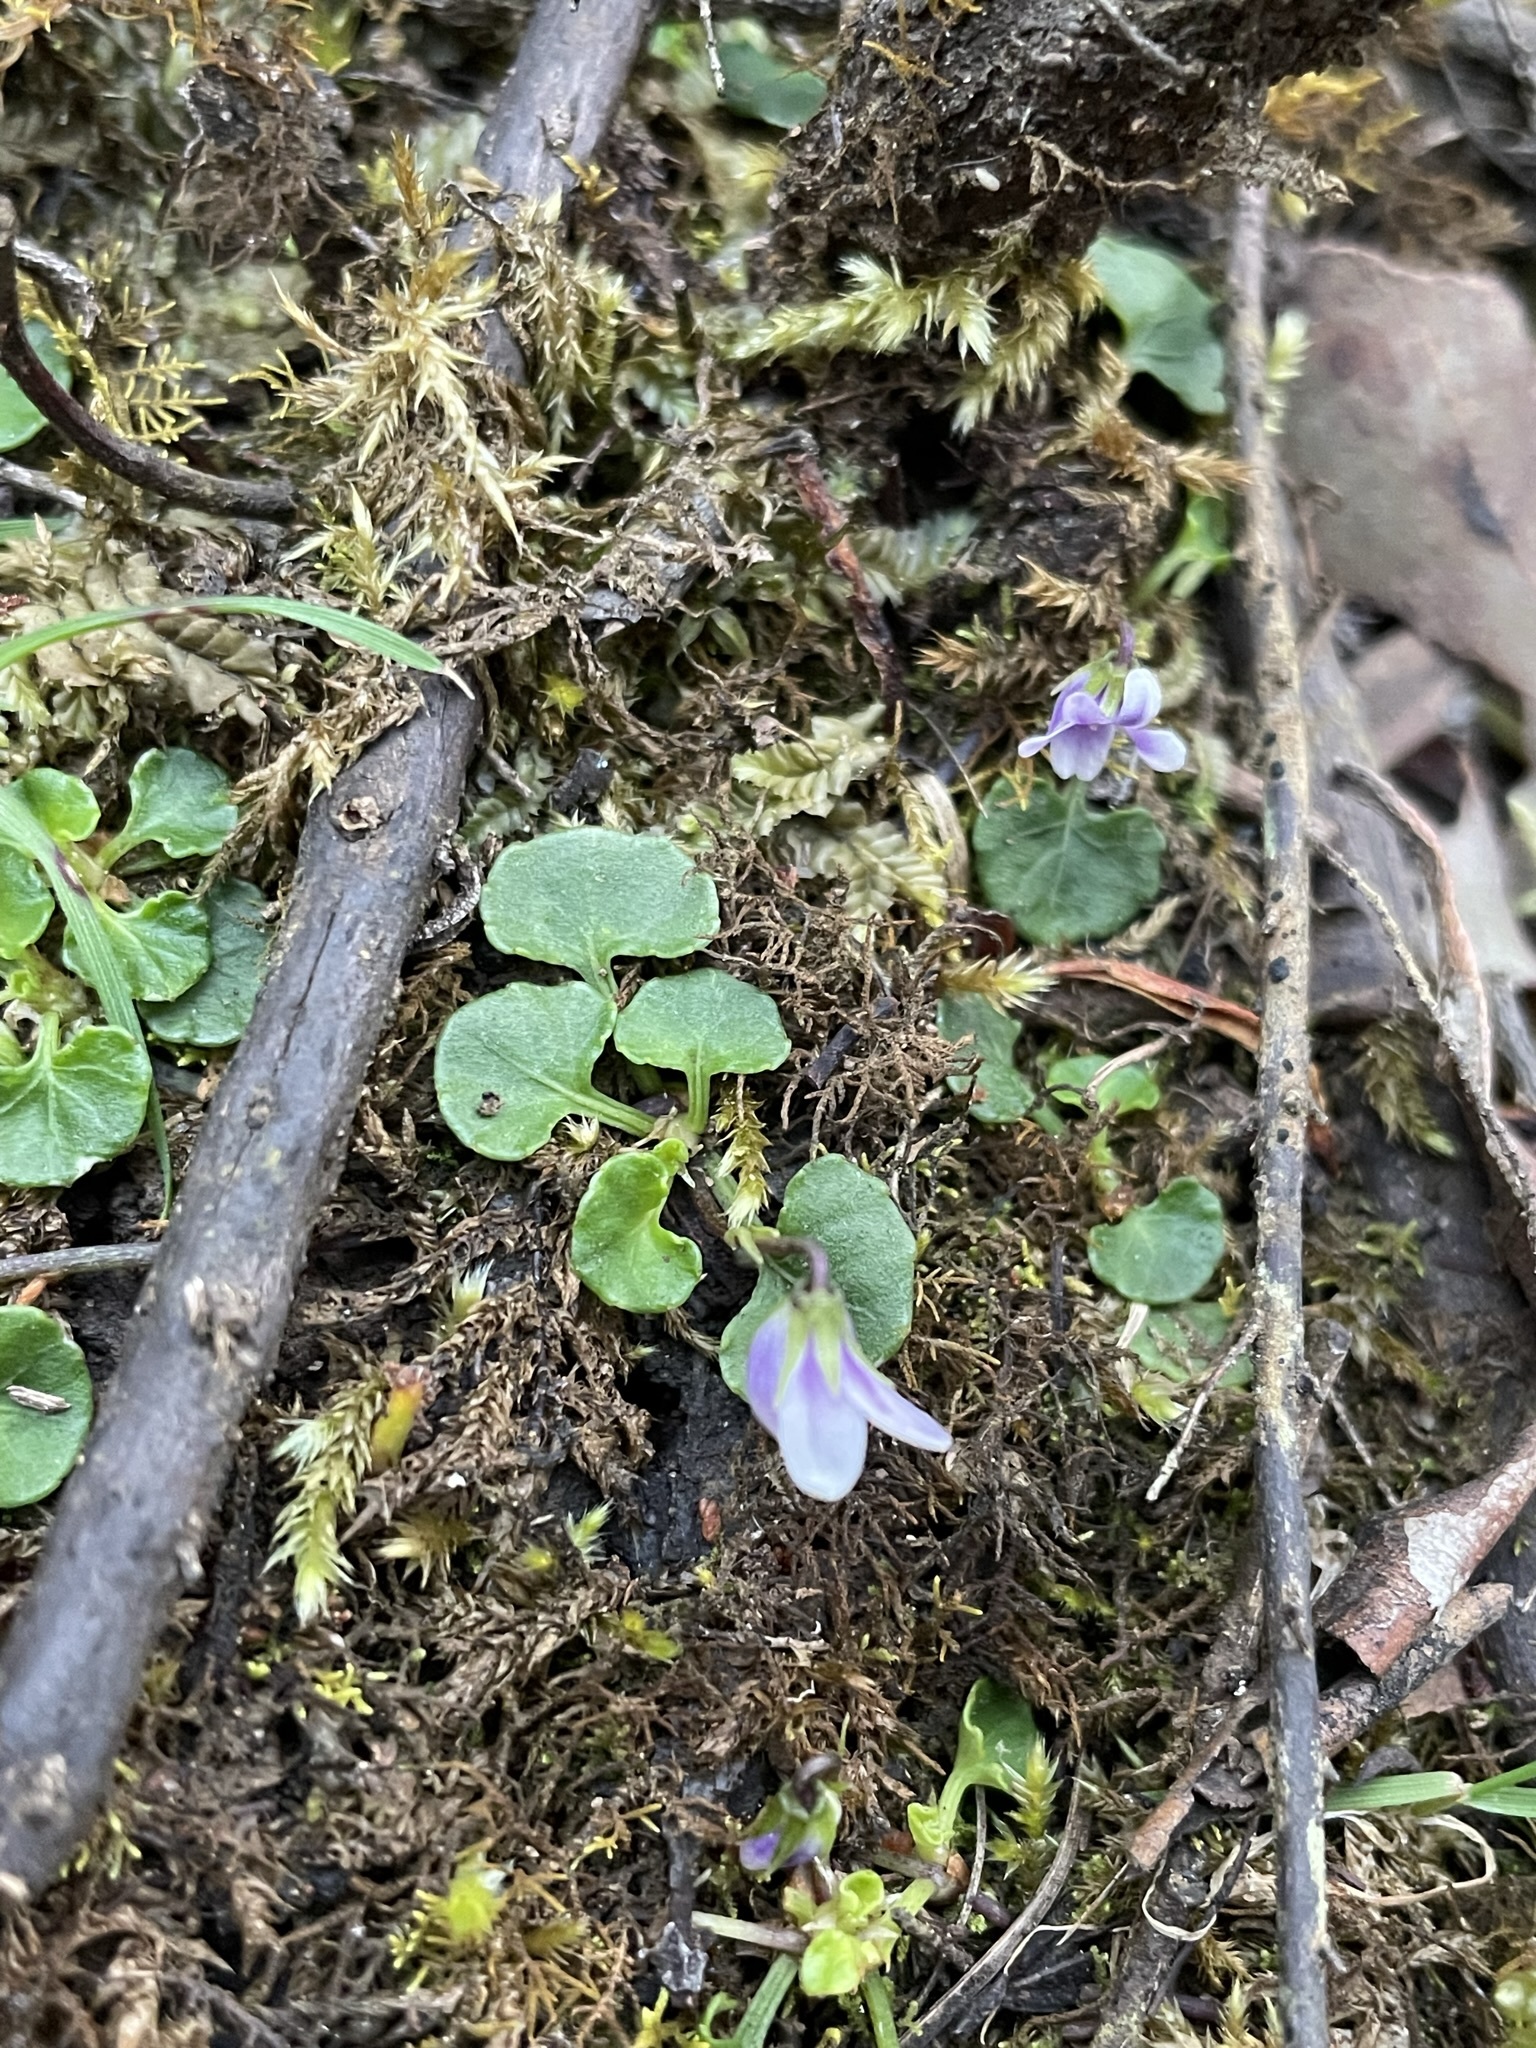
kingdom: Plantae
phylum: Tracheophyta
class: Magnoliopsida
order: Malpighiales
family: Violaceae
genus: Viola
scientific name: Viola hederacea
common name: Australian violet
